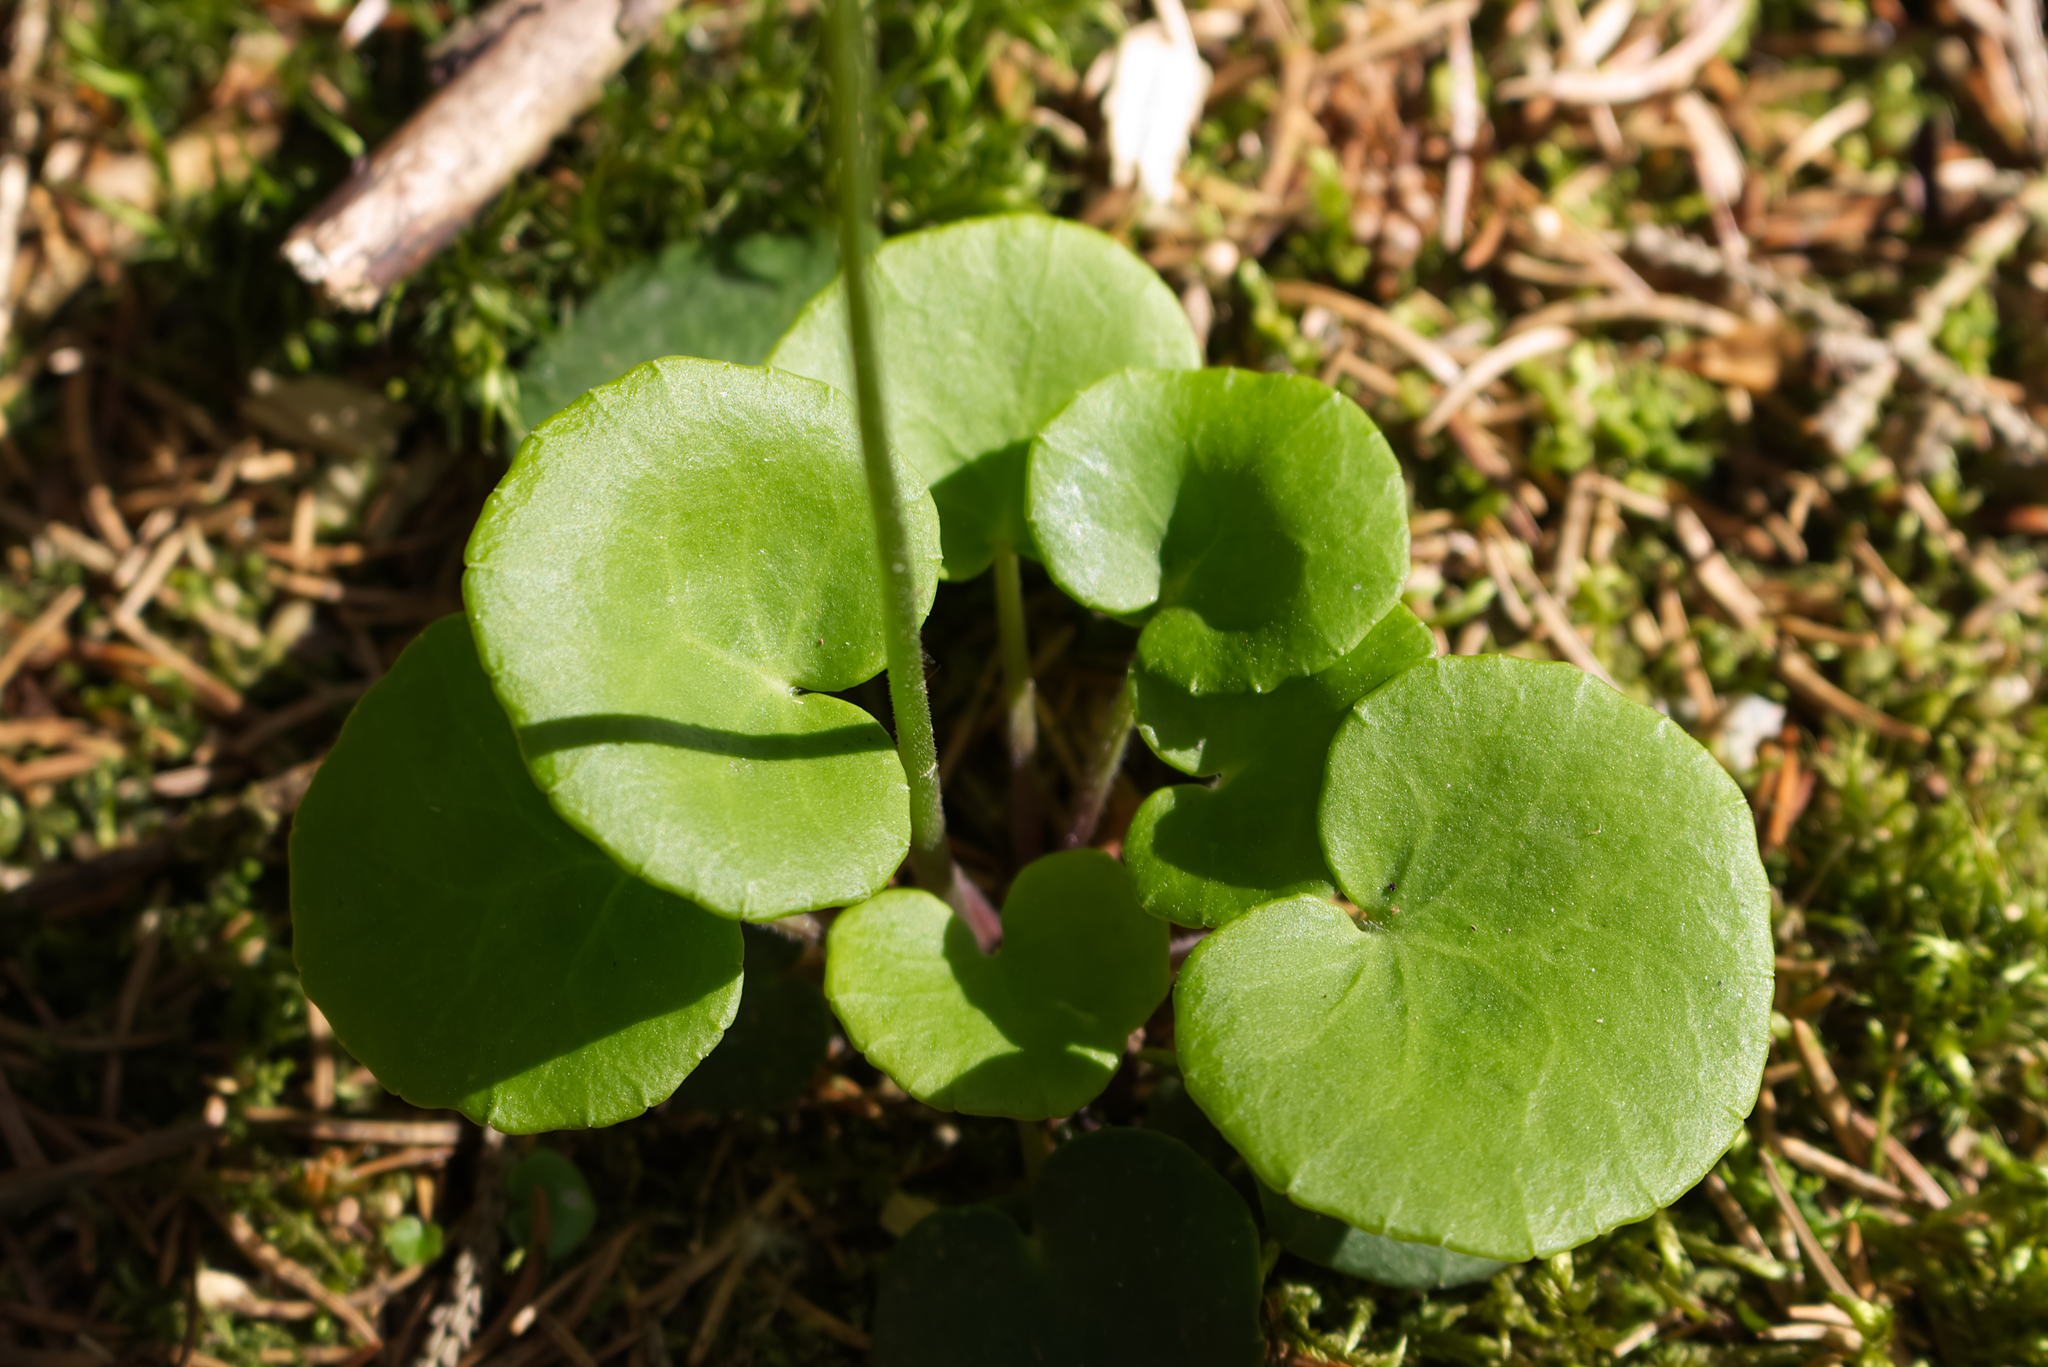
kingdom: Plantae
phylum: Tracheophyta
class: Magnoliopsida
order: Ericales
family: Primulaceae
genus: Soldanella
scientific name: Soldanella montana
